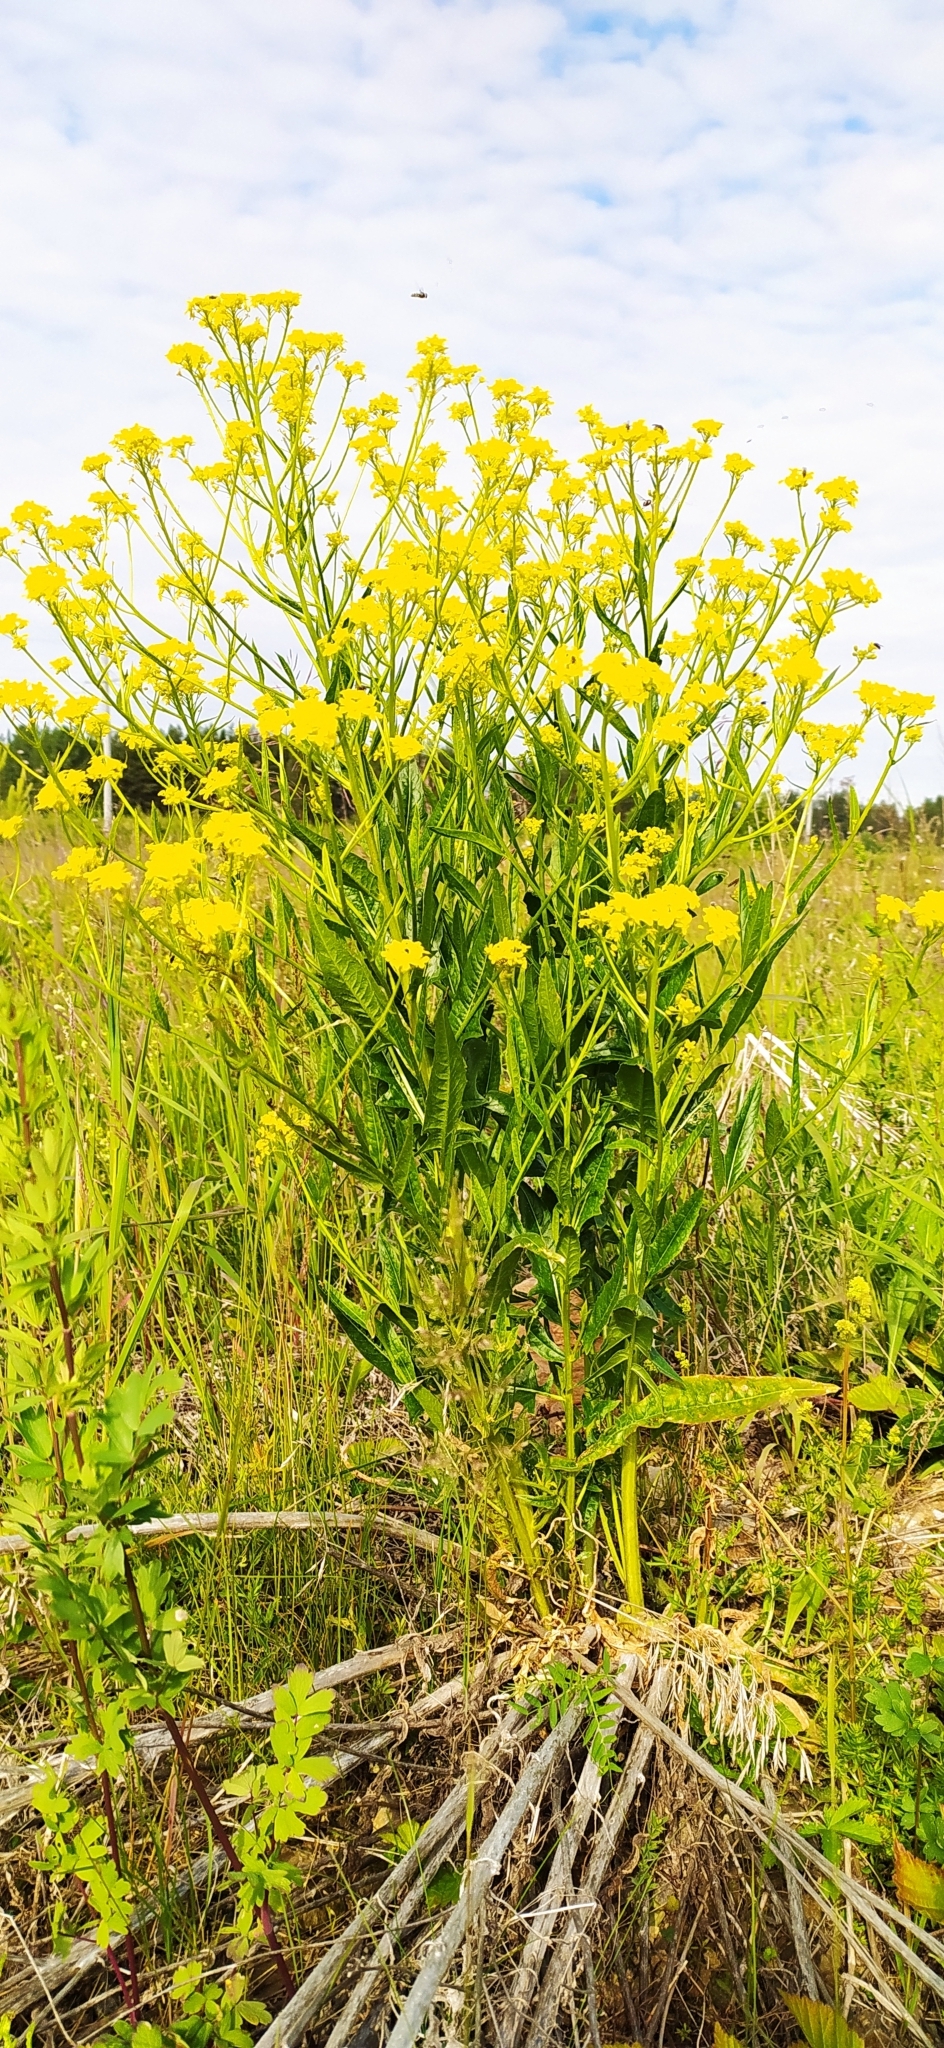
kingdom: Plantae
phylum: Tracheophyta
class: Magnoliopsida
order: Brassicales
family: Brassicaceae
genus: Bunias
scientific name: Bunias orientalis
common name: Warty-cabbage
